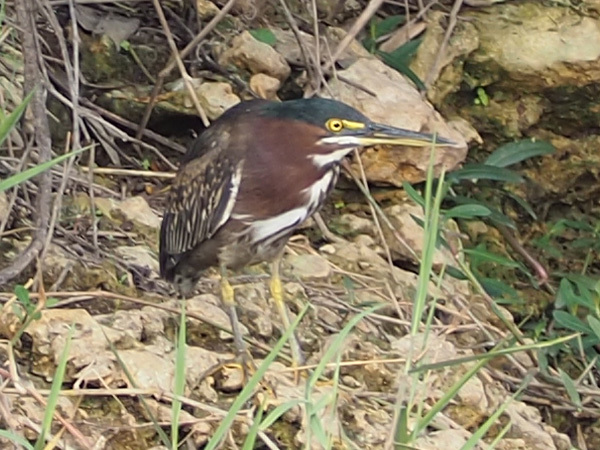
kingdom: Animalia
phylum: Chordata
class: Aves
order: Pelecaniformes
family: Ardeidae
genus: Butorides
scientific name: Butorides virescens
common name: Green heron
